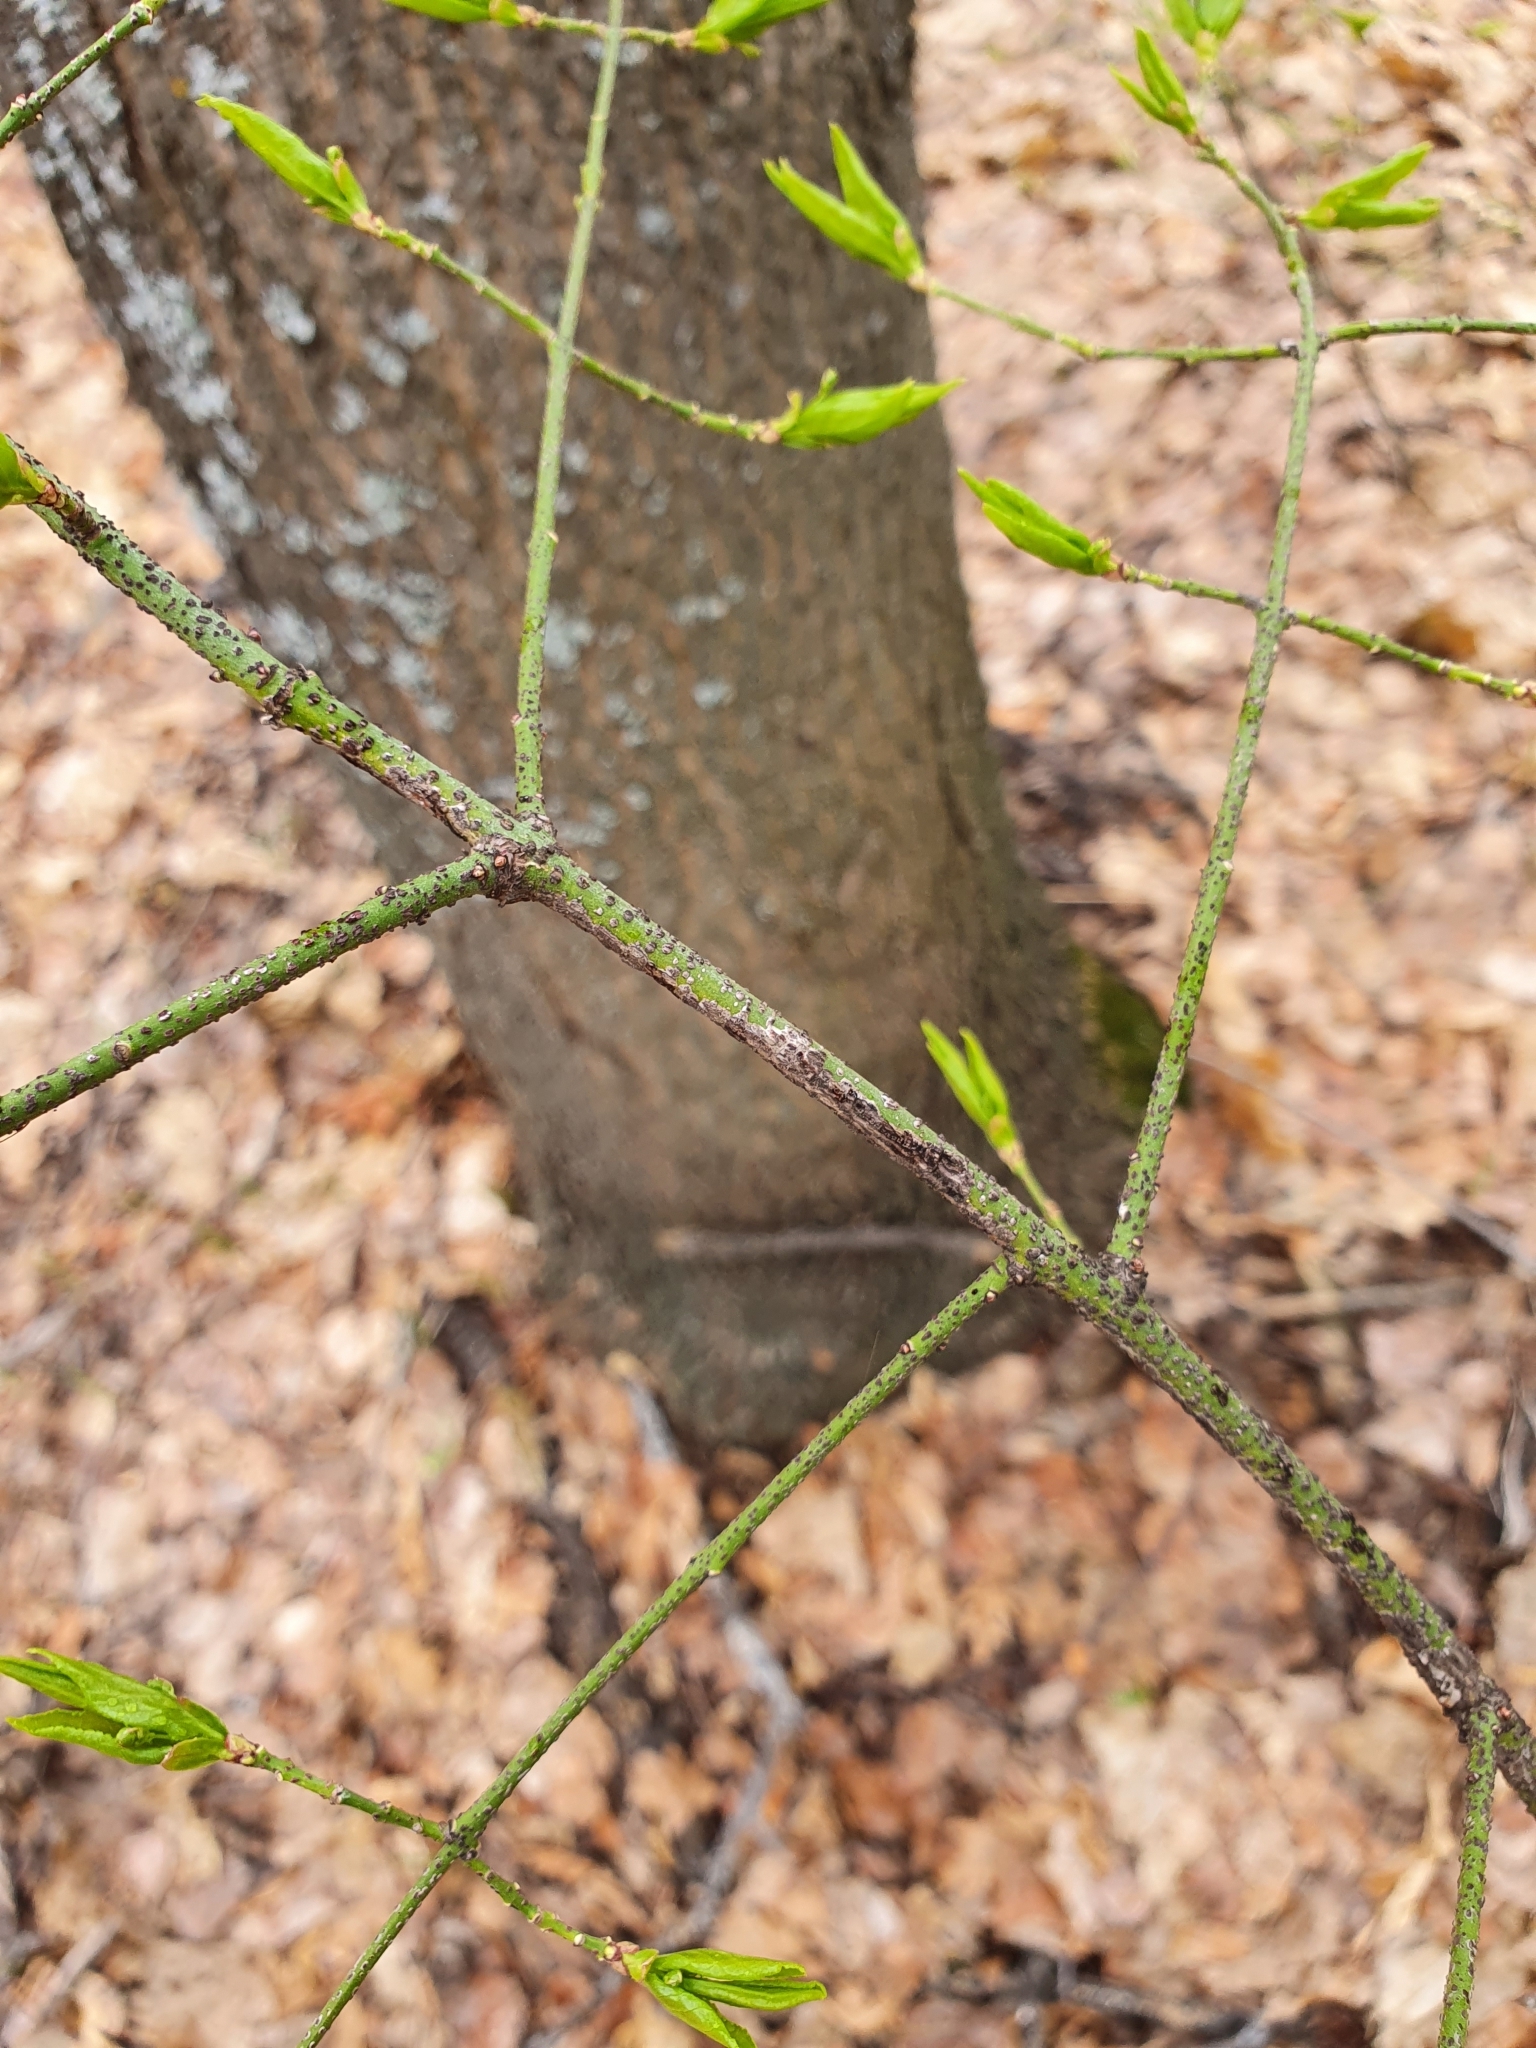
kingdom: Plantae
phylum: Tracheophyta
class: Magnoliopsida
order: Celastrales
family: Celastraceae
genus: Euonymus
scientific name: Euonymus verrucosus
